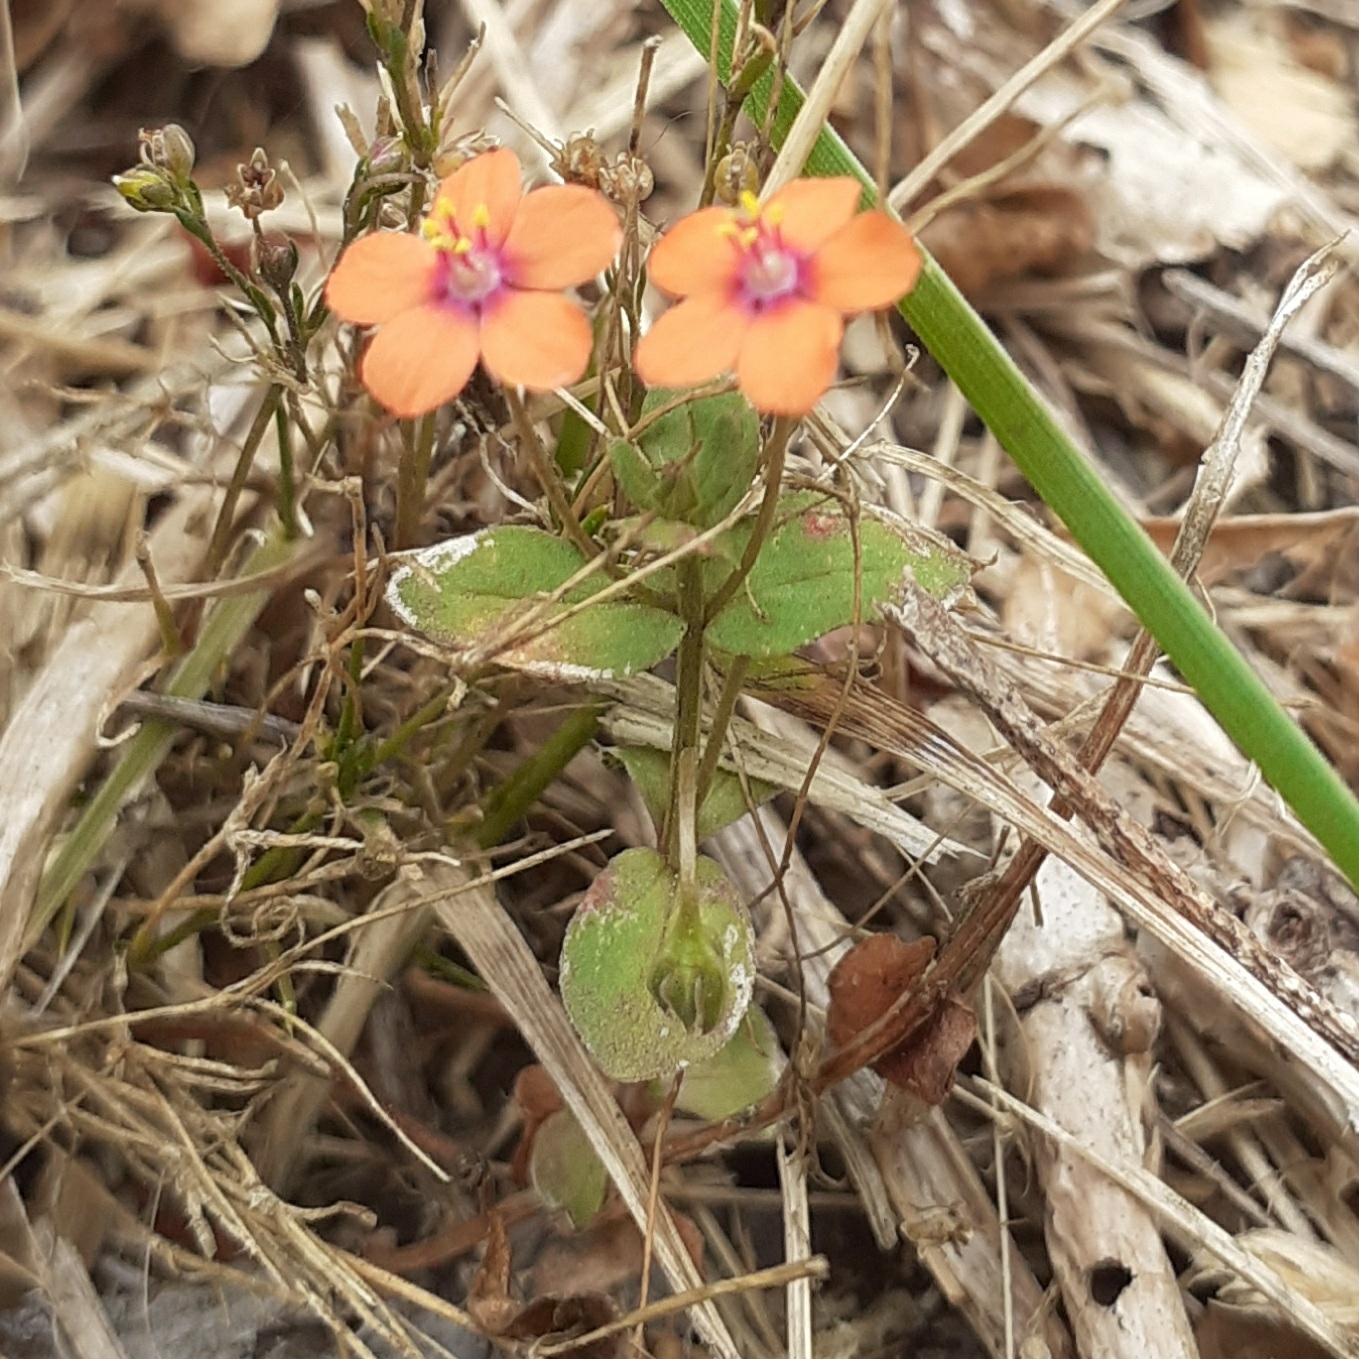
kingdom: Plantae
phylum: Tracheophyta
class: Magnoliopsida
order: Ericales
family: Primulaceae
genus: Lysimachia
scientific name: Lysimachia arvensis
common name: Scarlet pimpernel
